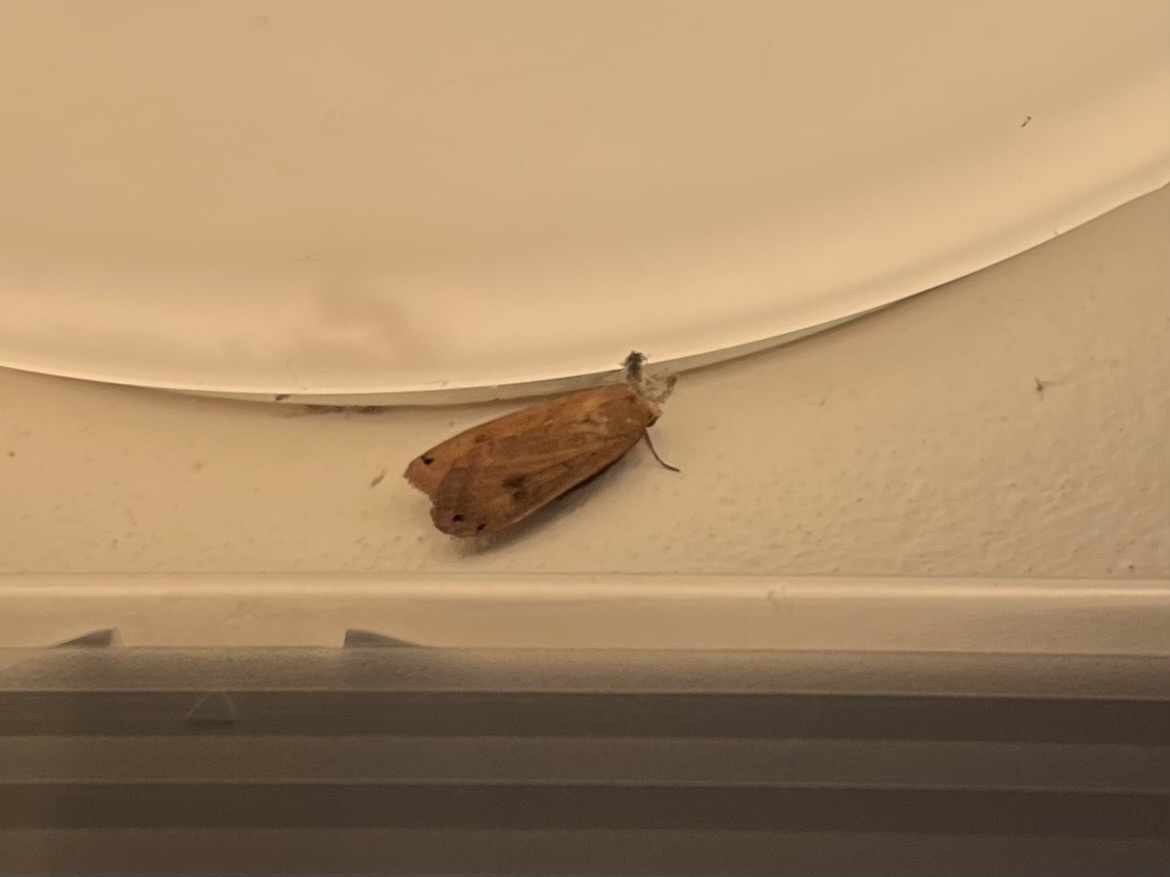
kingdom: Animalia
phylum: Arthropoda
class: Insecta
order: Lepidoptera
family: Noctuidae
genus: Noctua
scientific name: Noctua pronuba
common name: Large yellow underwing
